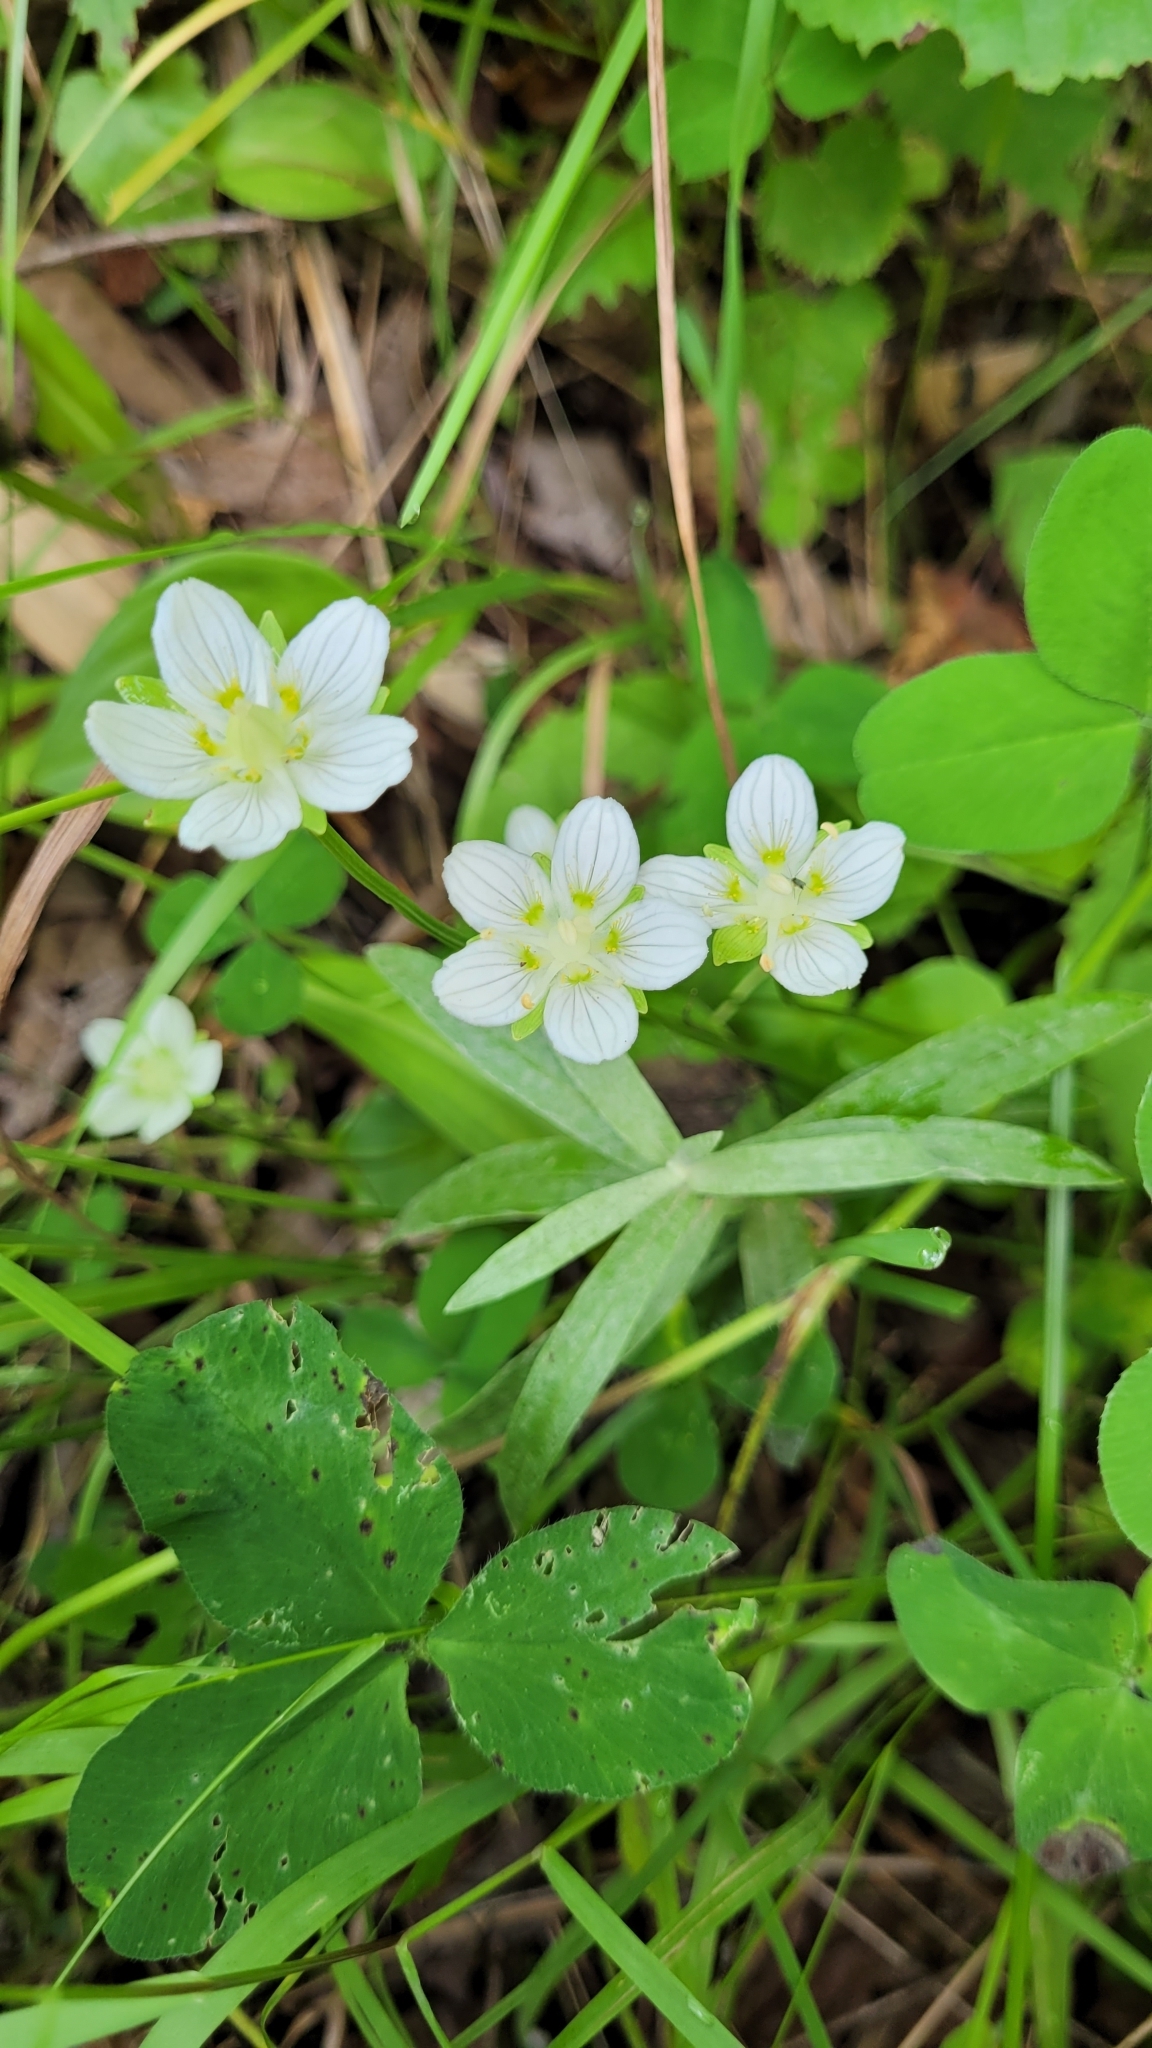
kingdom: Plantae
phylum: Tracheophyta
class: Magnoliopsida
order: Celastrales
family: Parnassiaceae
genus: Parnassia
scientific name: Parnassia palustris
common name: Grass-of-parnassus
